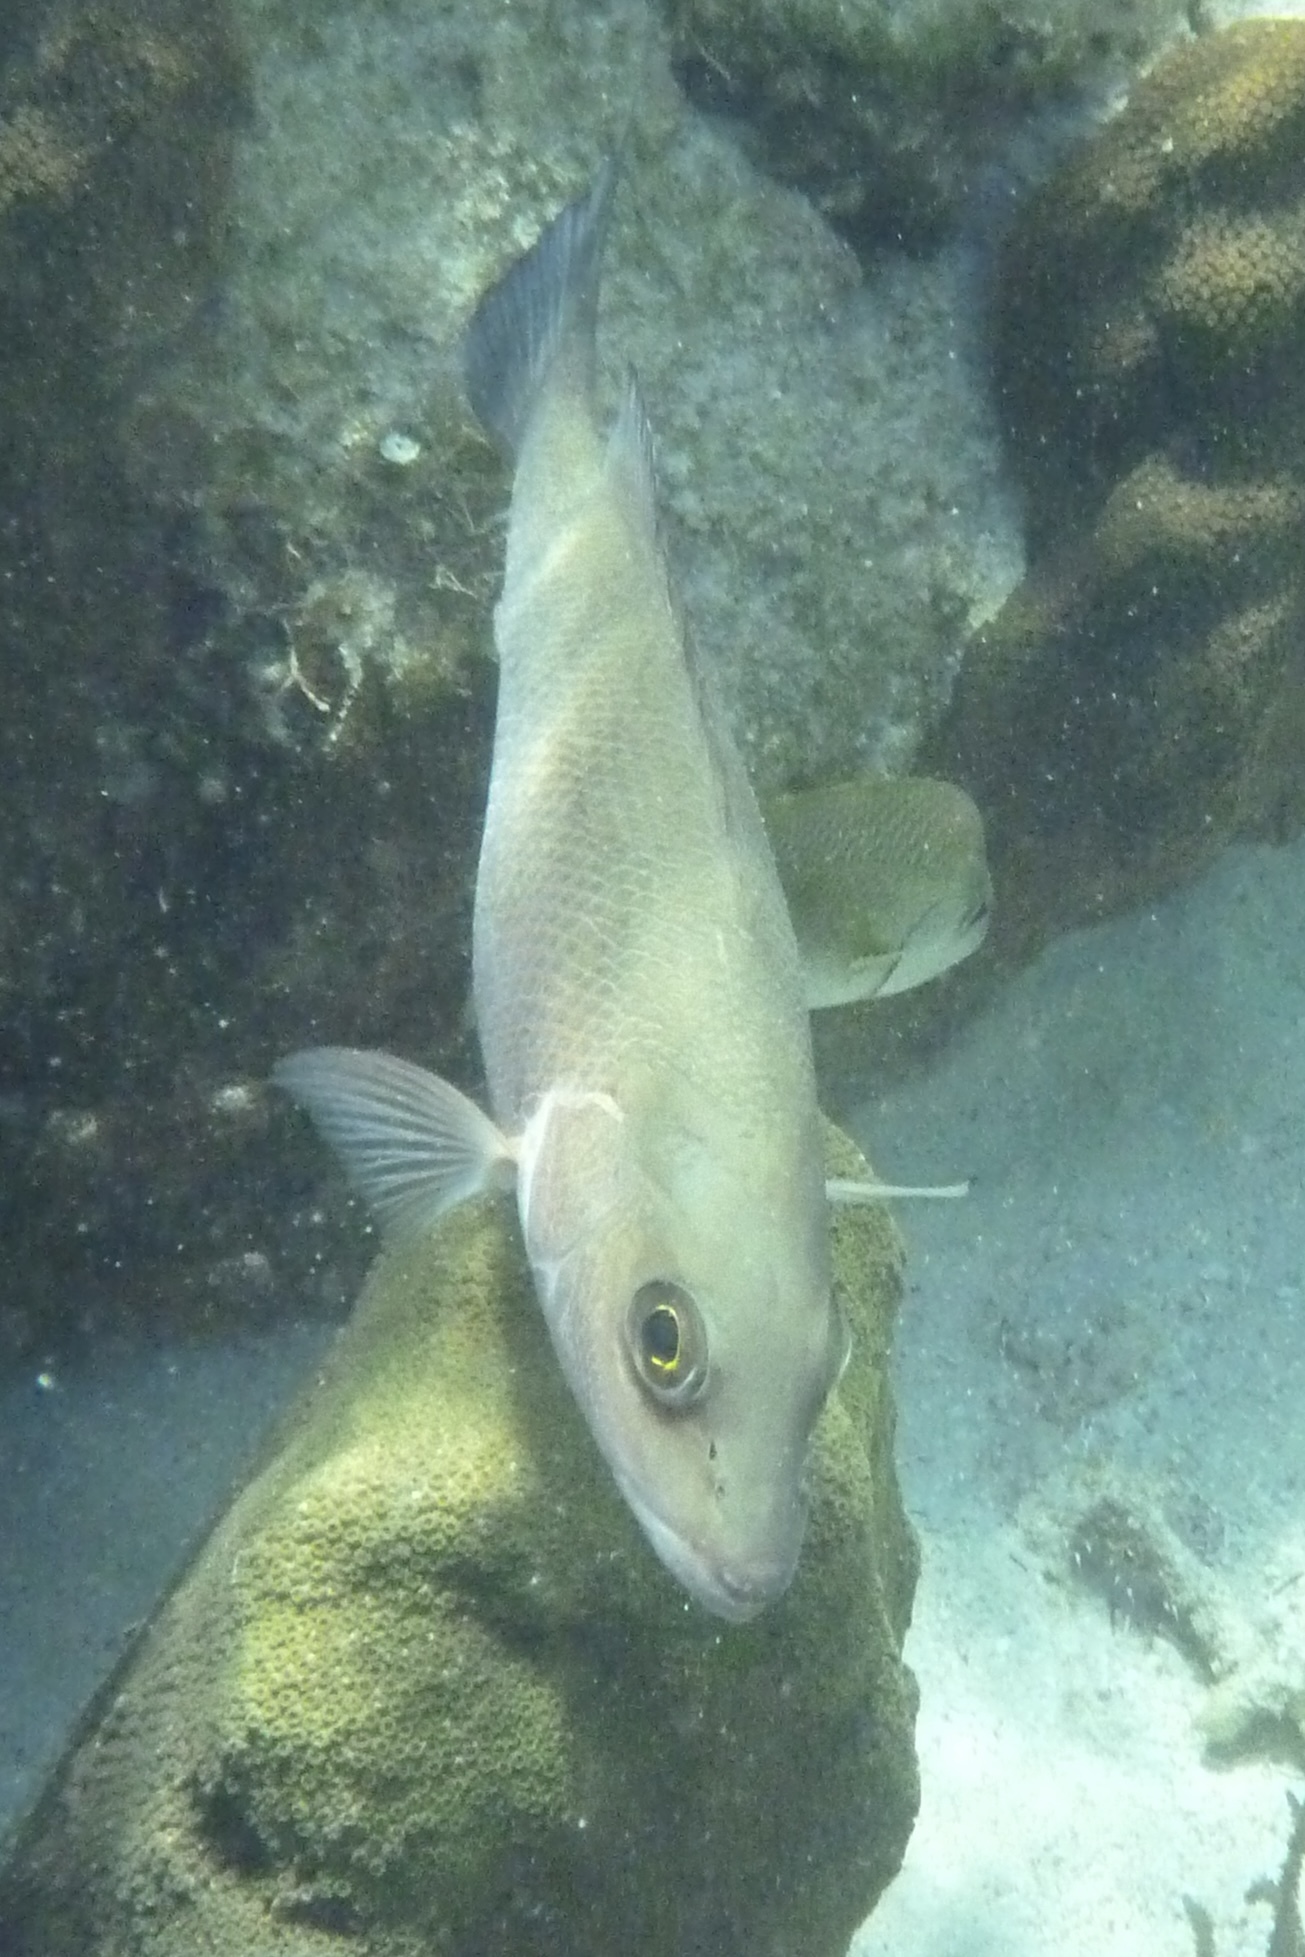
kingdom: Animalia
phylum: Chordata
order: Perciformes
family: Lutjanidae
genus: Lutjanus
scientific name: Lutjanus griseus
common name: Gray snapper
